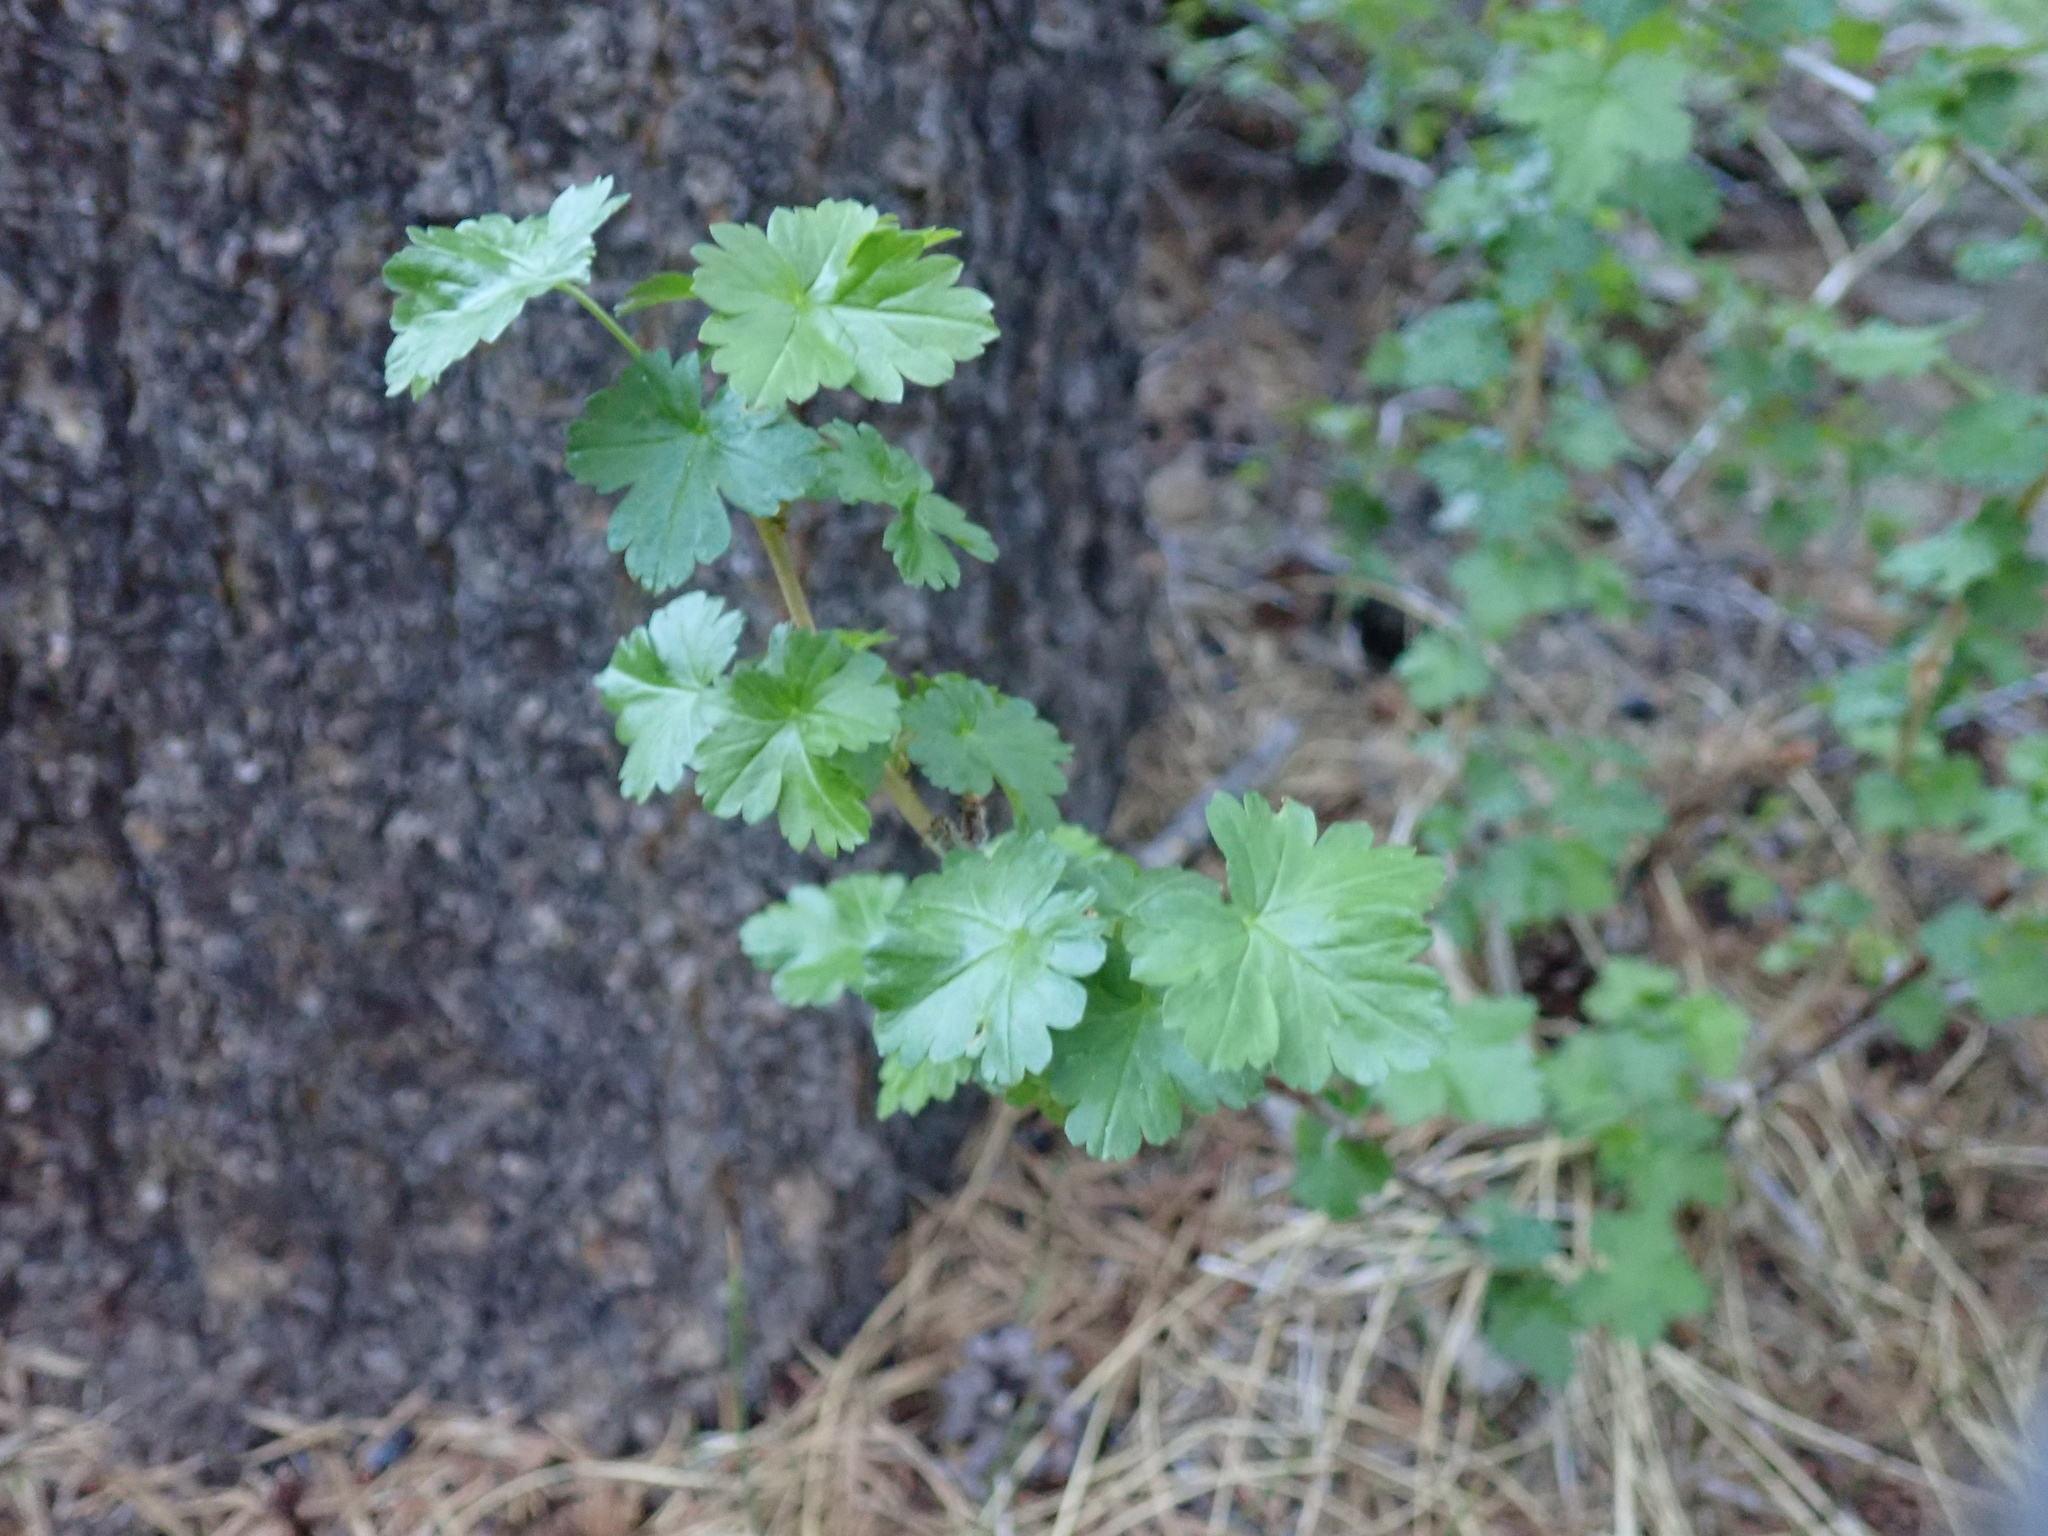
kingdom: Plantae
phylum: Tracheophyta
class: Magnoliopsida
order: Saxifragales
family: Grossulariaceae
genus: Ribes
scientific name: Ribes montigenum
